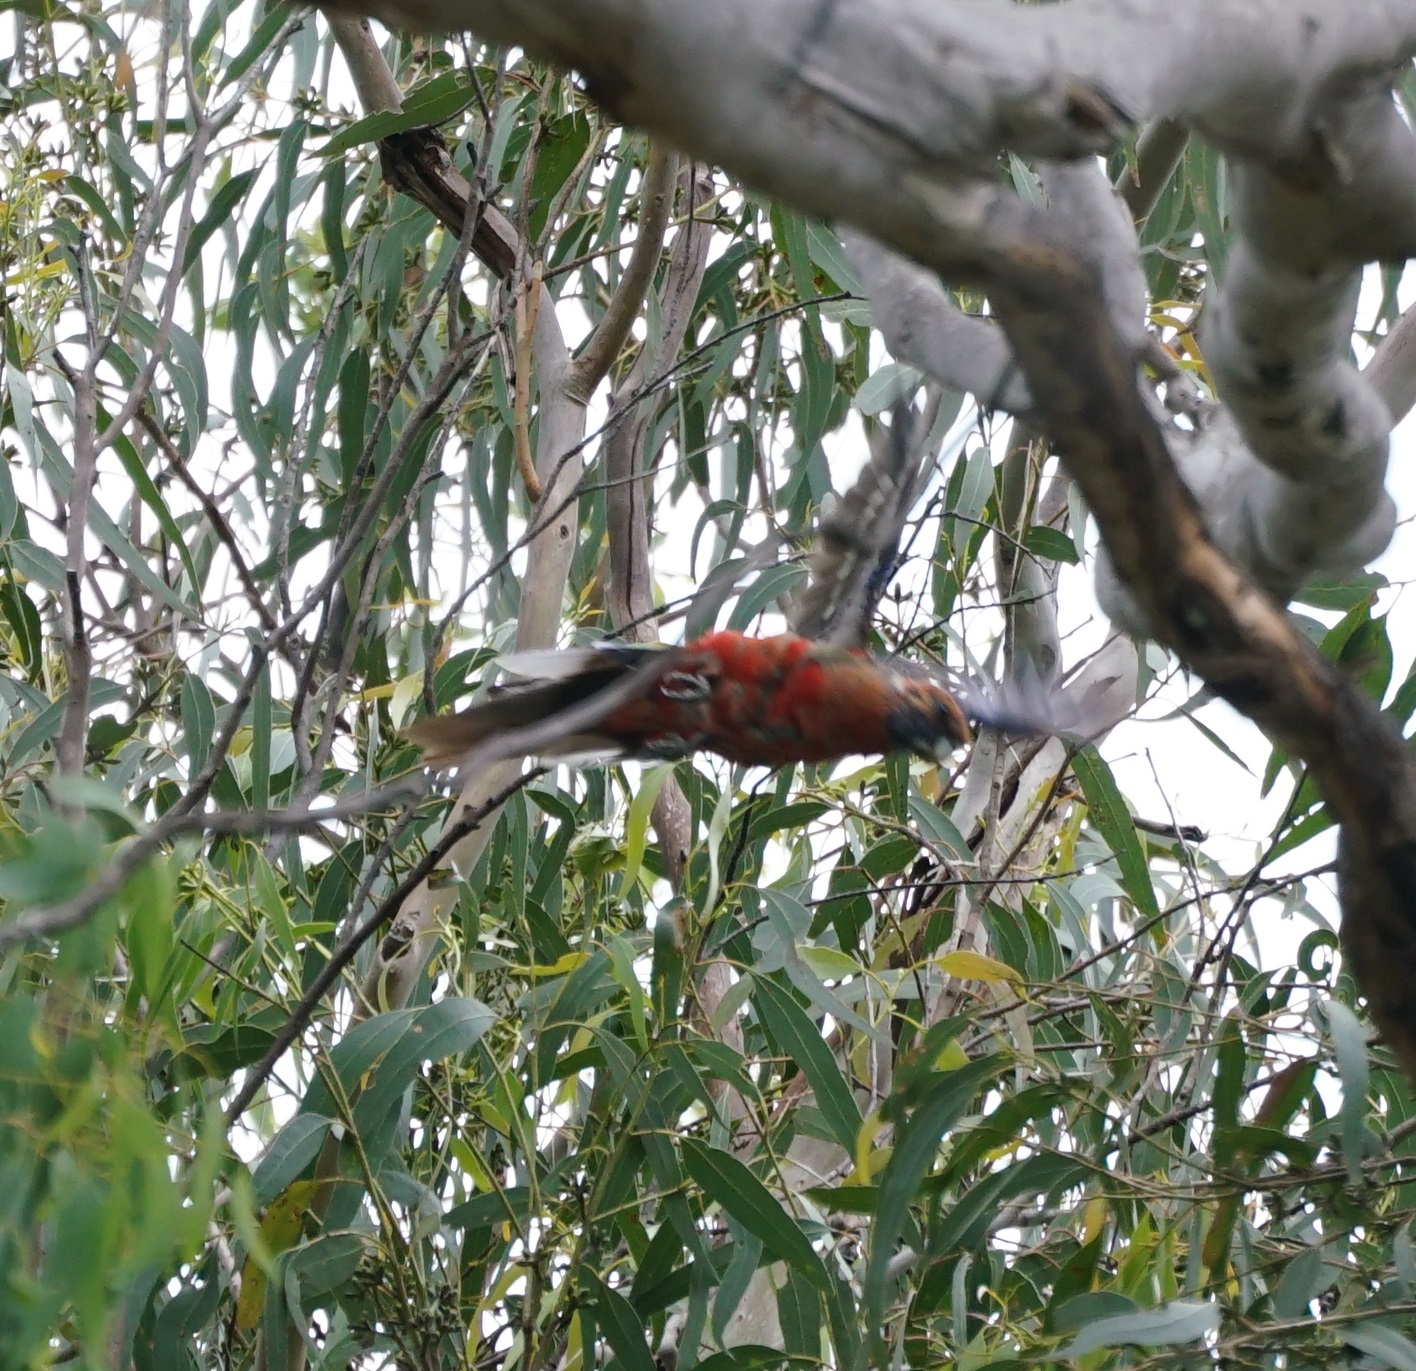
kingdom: Animalia
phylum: Chordata
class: Aves
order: Psittaciformes
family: Psittacidae
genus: Platycercus
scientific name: Platycercus elegans
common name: Crimson rosella
